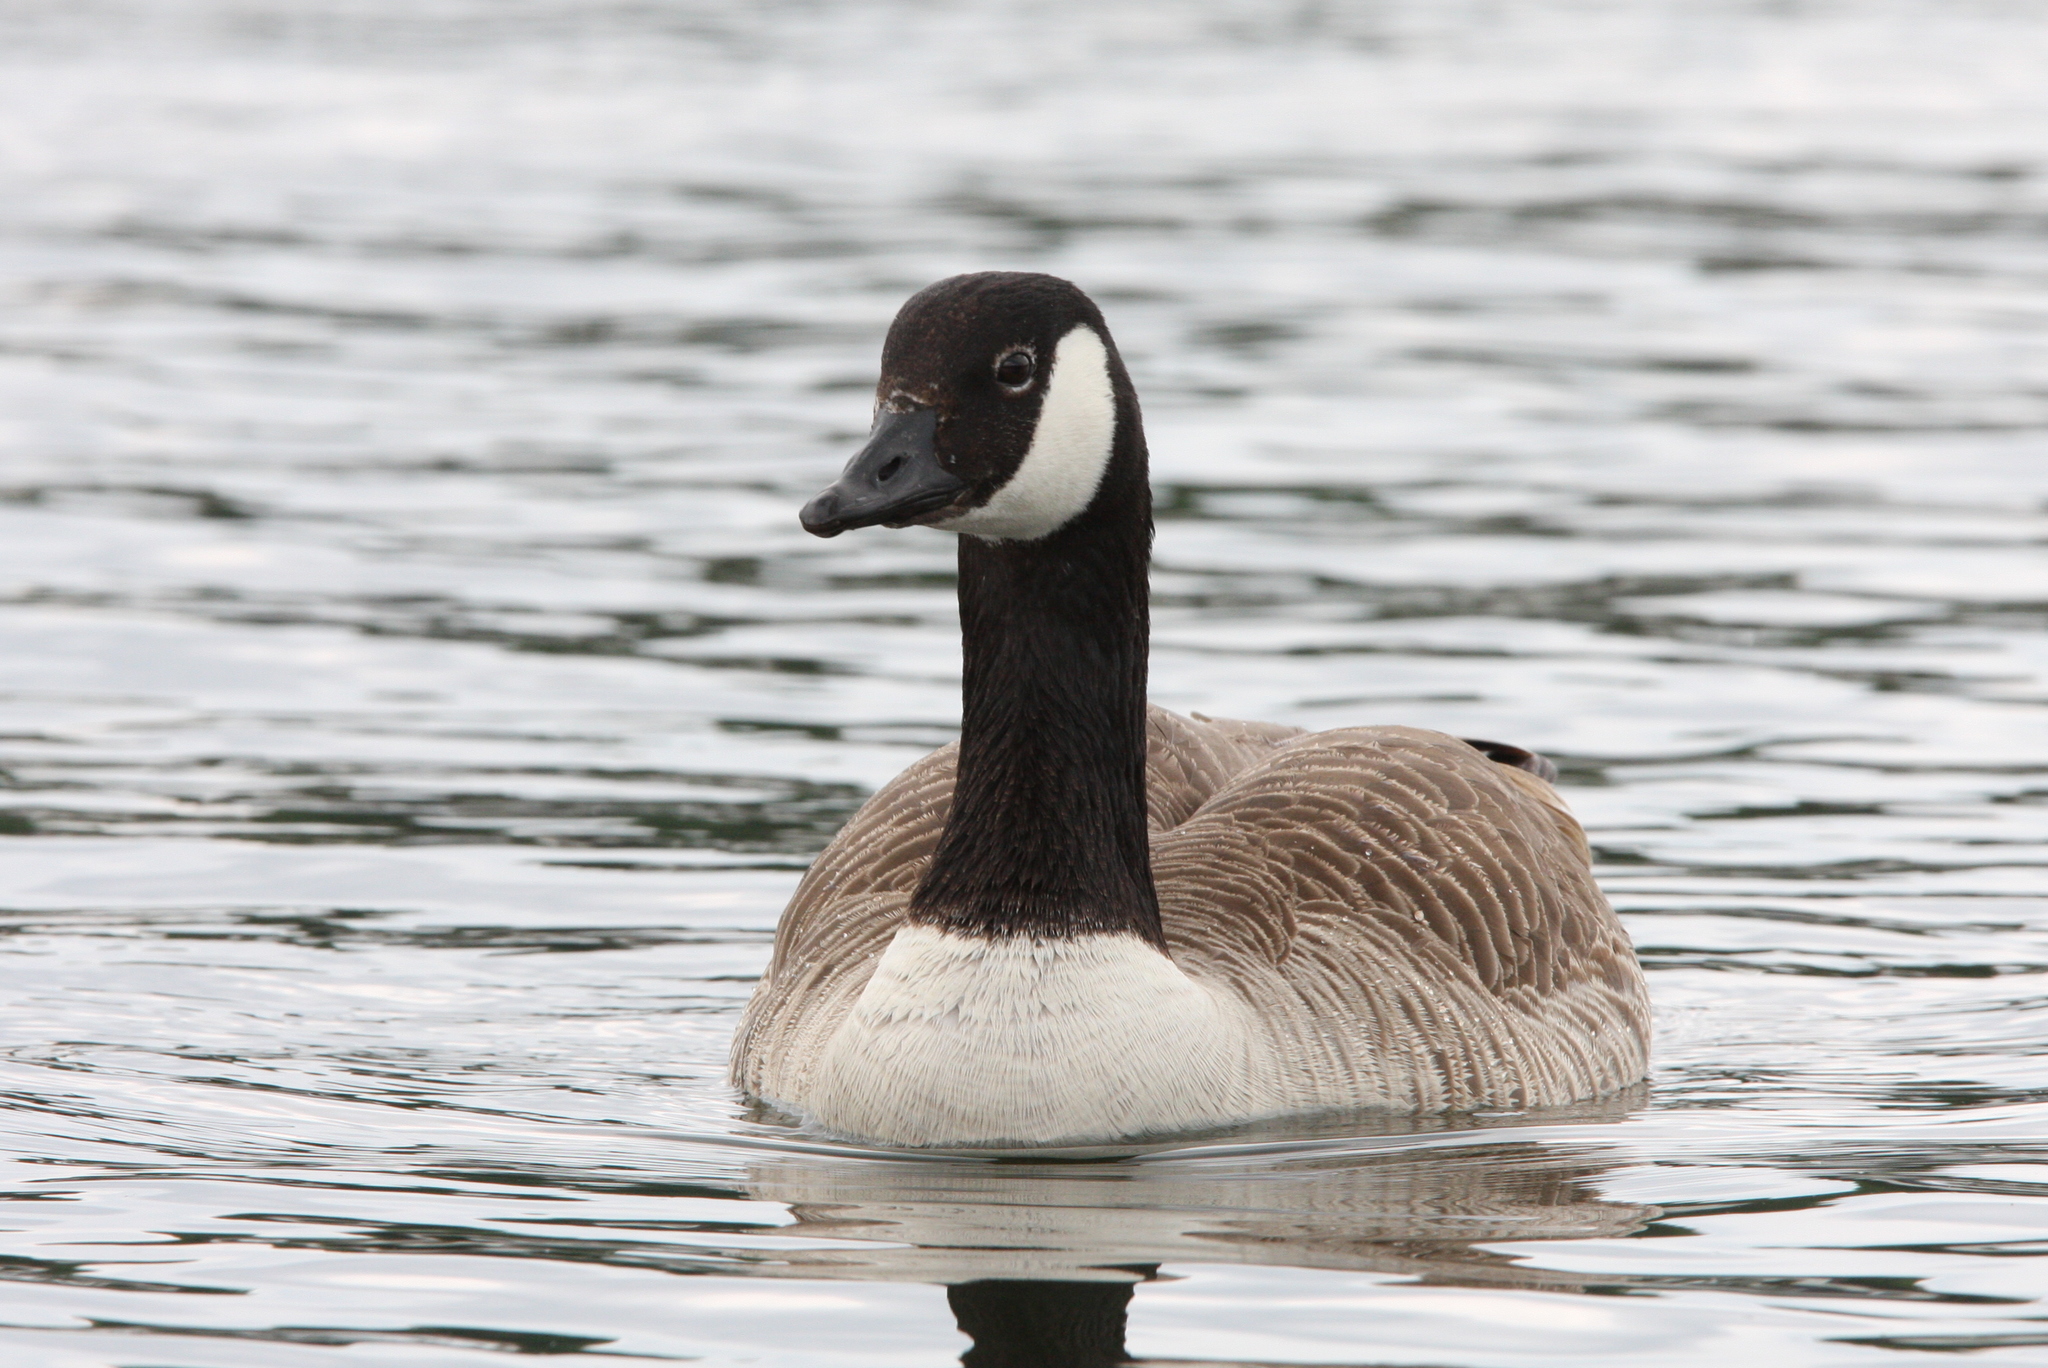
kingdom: Animalia
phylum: Chordata
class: Aves
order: Anseriformes
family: Anatidae
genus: Branta
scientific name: Branta canadensis
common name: Canada goose
